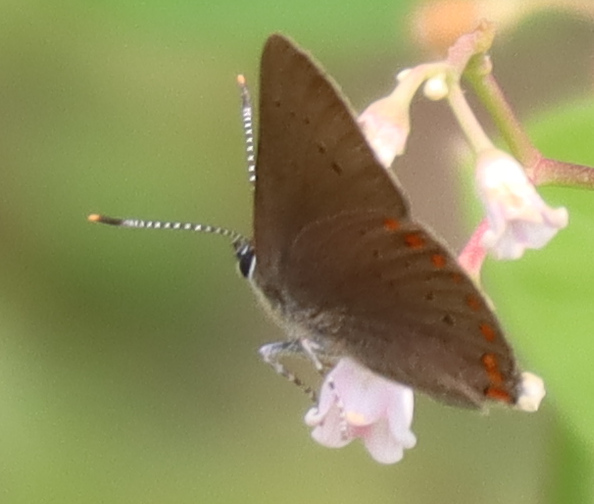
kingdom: Animalia
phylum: Arthropoda
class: Insecta
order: Lepidoptera
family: Lycaenidae
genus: Harkenclenus
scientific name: Harkenclenus titus
